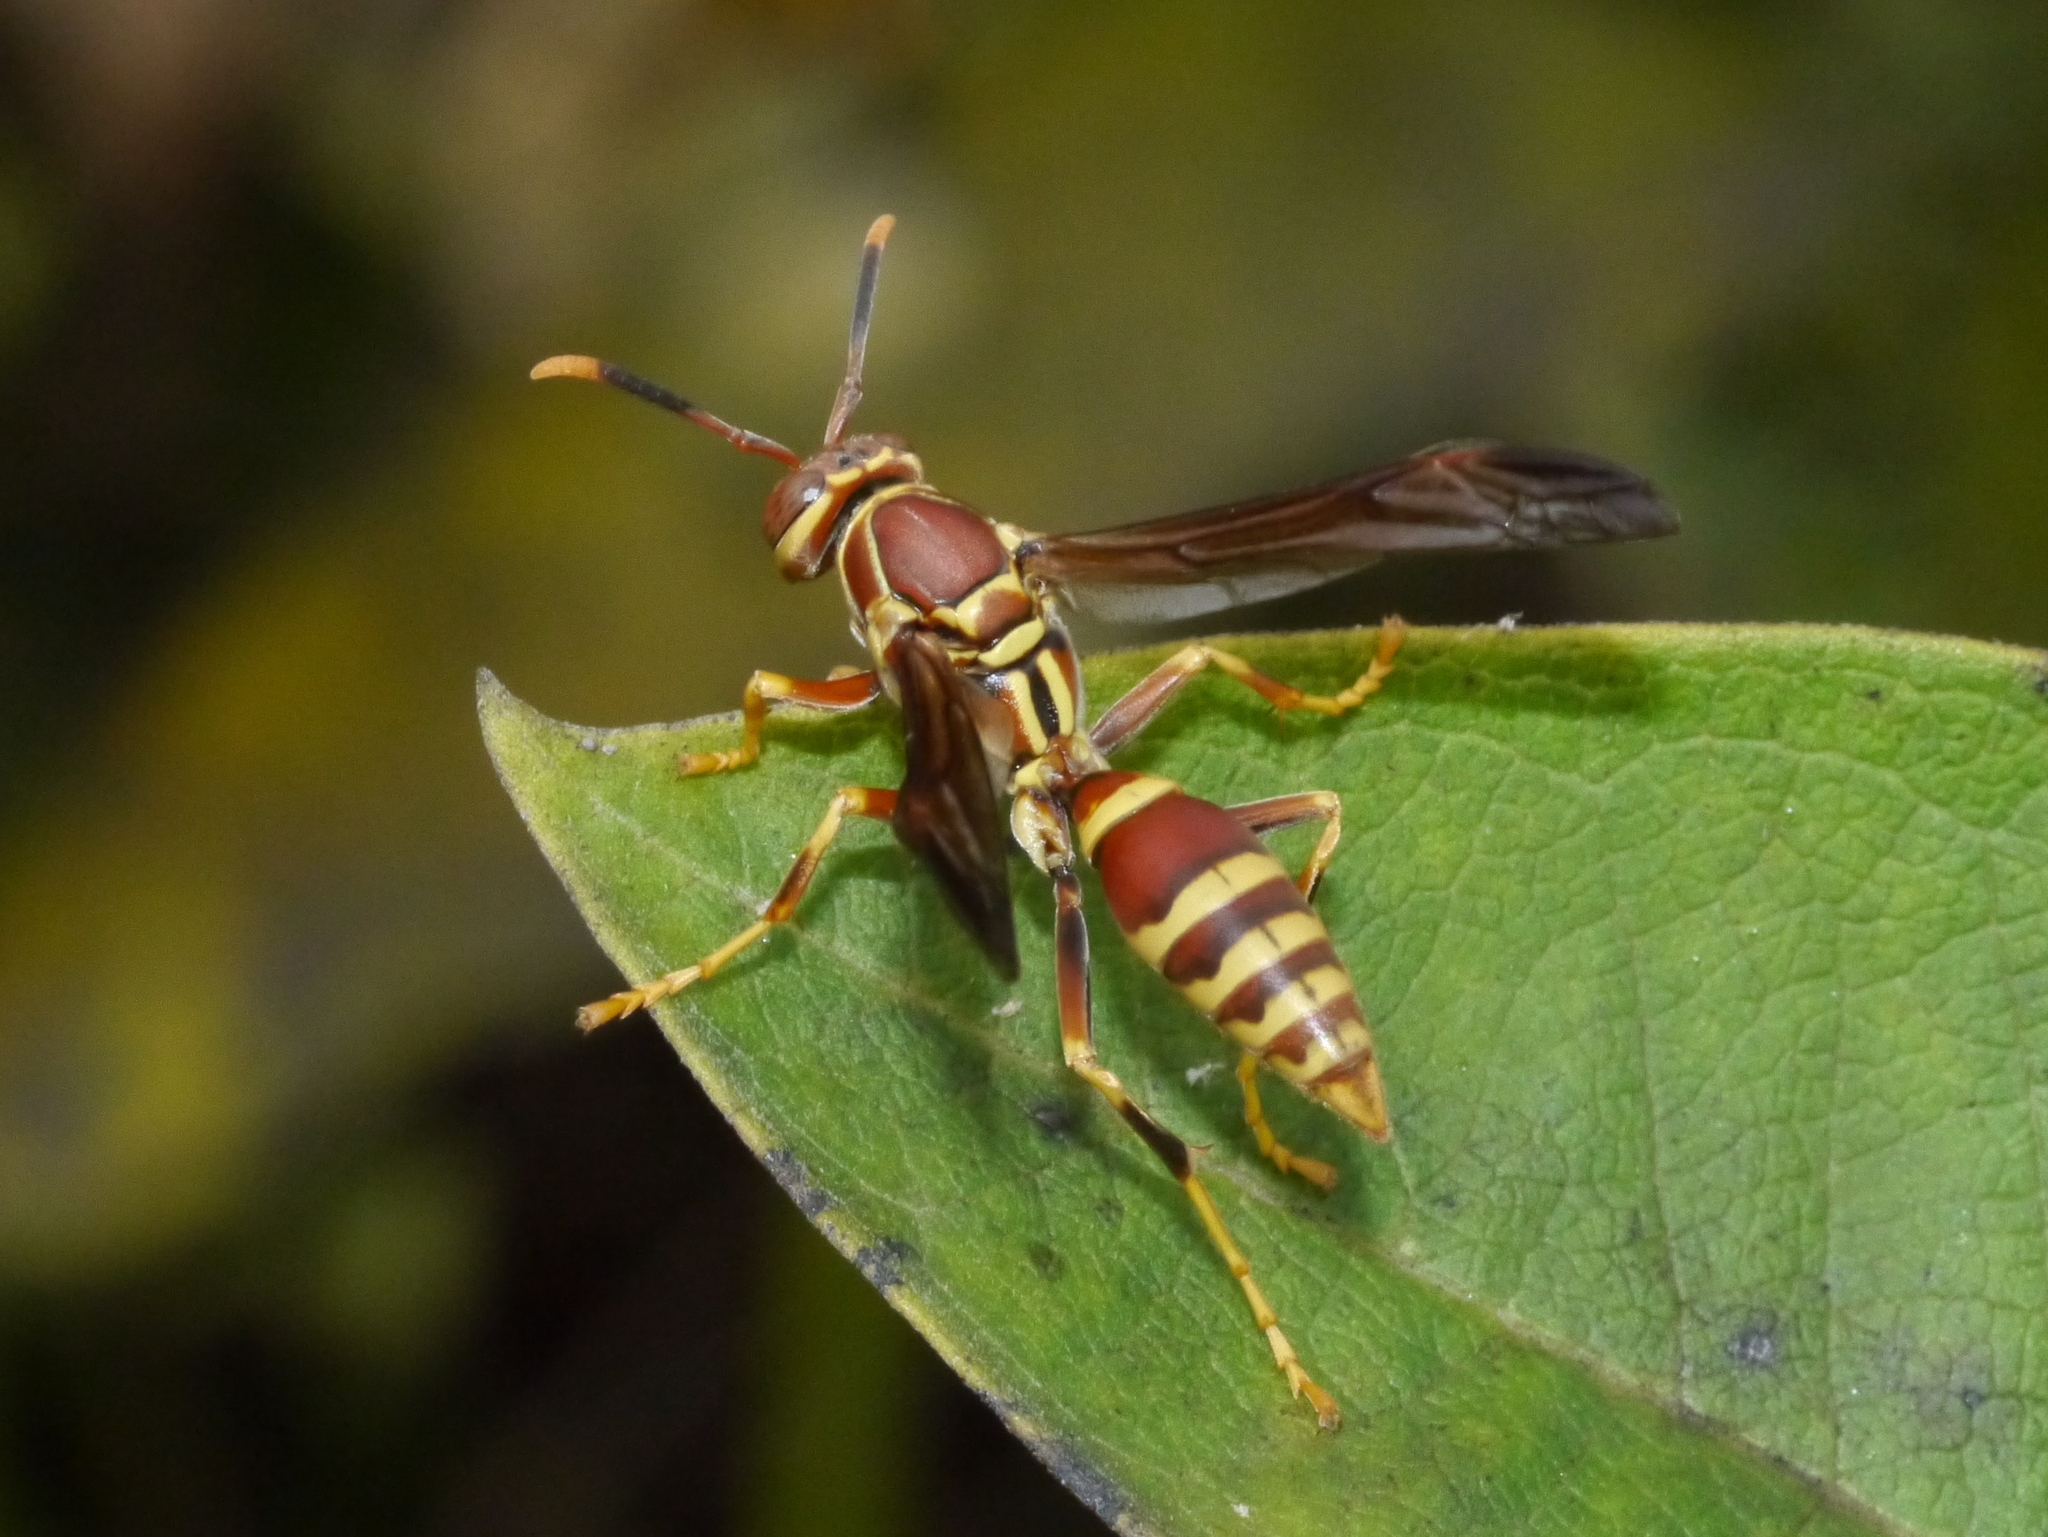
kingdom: Animalia
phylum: Arthropoda
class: Insecta
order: Hymenoptera
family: Eumenidae
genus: Polistes
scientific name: Polistes exclamans
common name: Paper wasp
